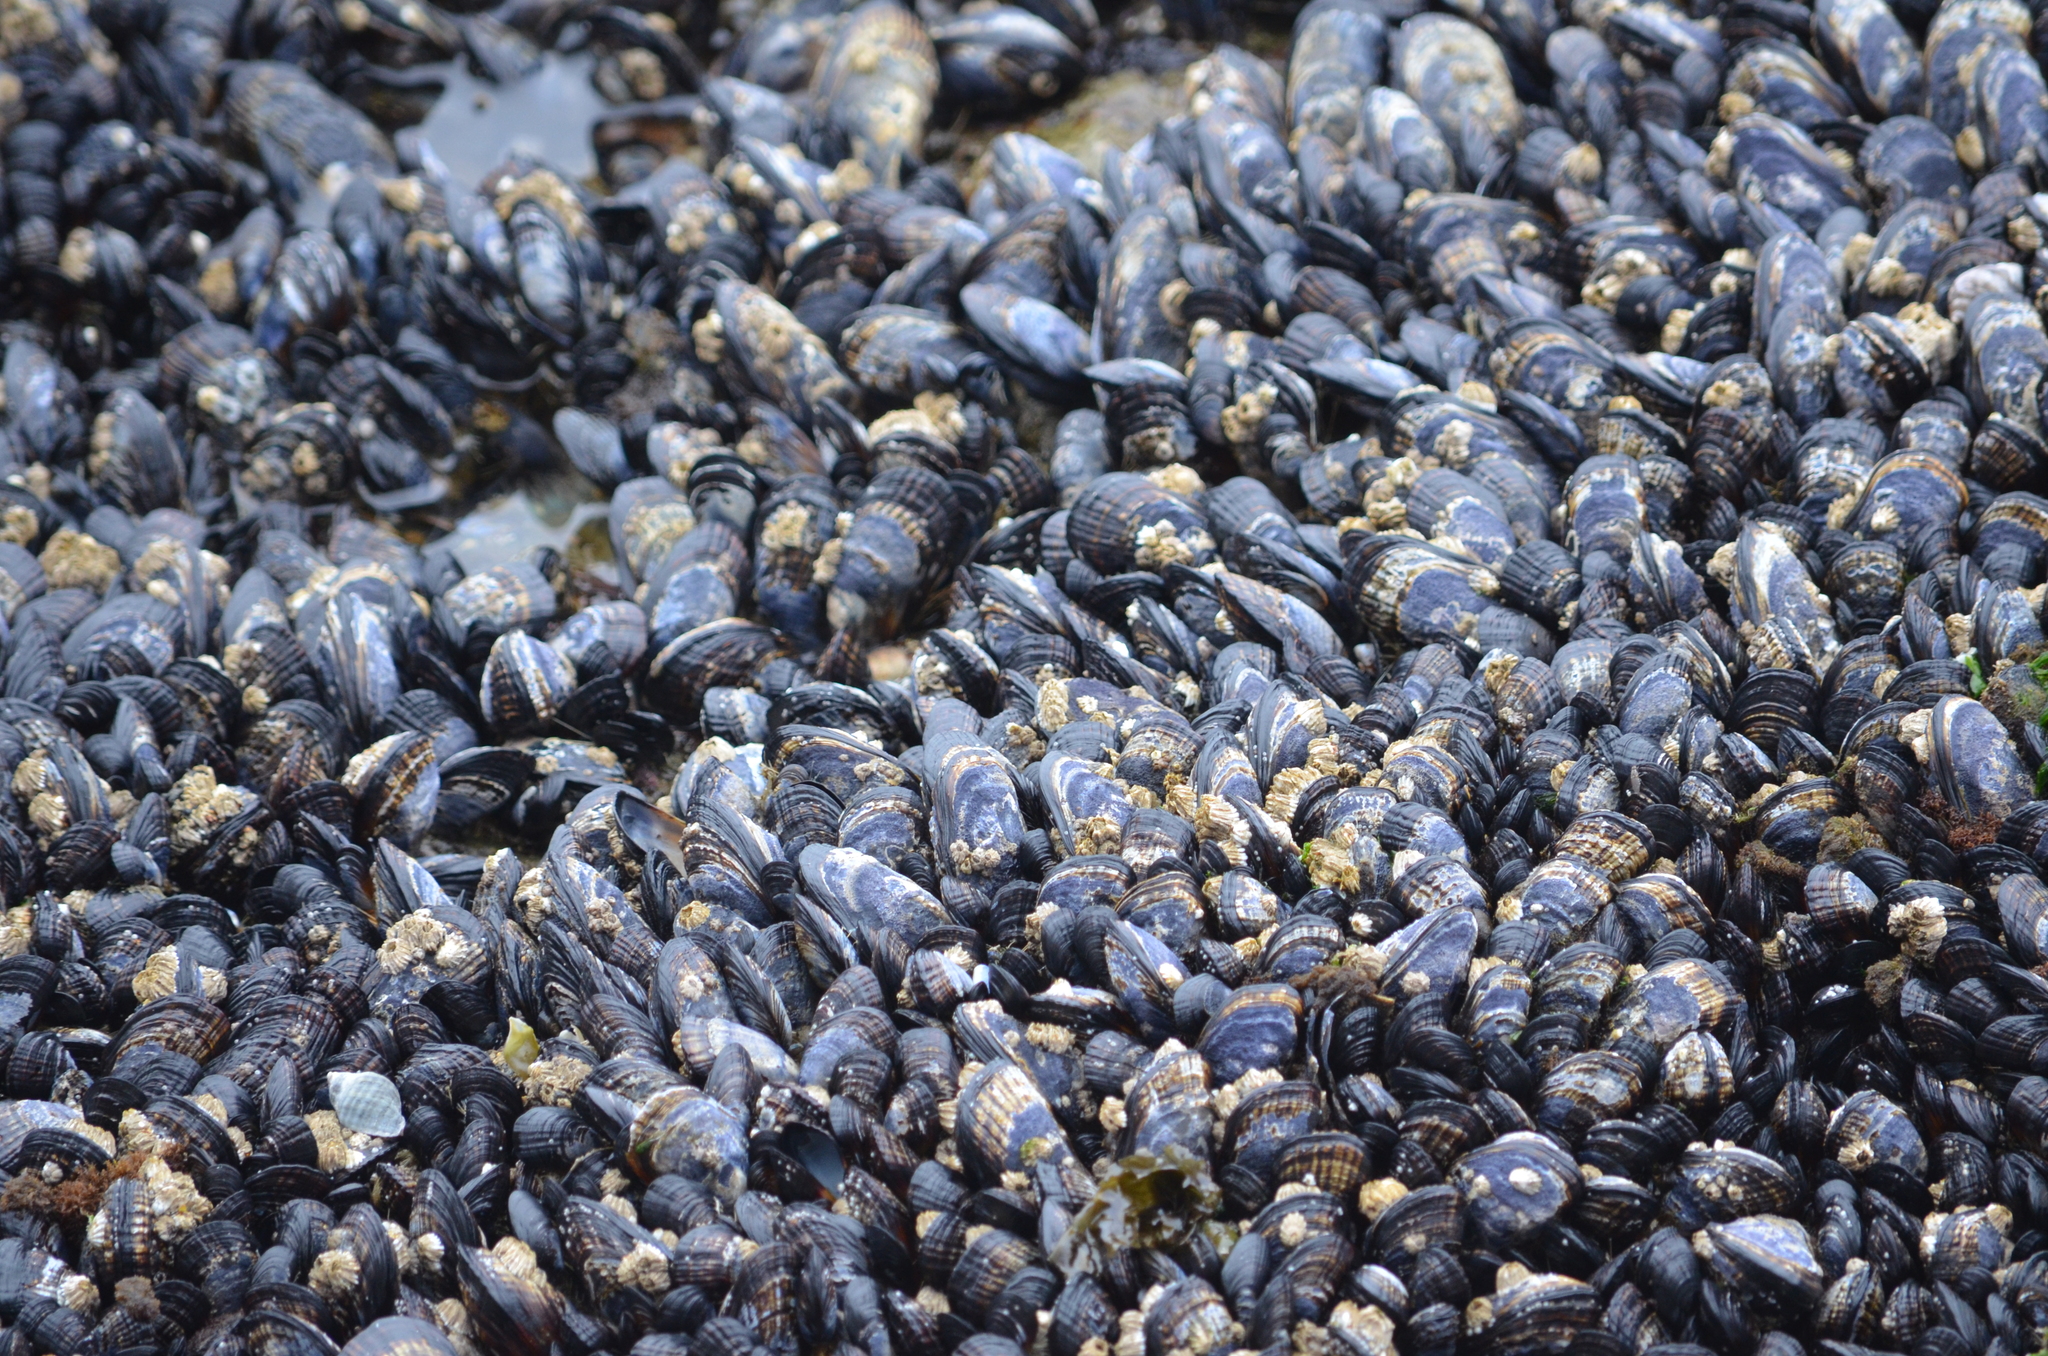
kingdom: Animalia
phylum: Mollusca
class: Bivalvia
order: Mytilida
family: Mytilidae
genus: Mytilus
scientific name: Mytilus californianus
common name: California mussel
